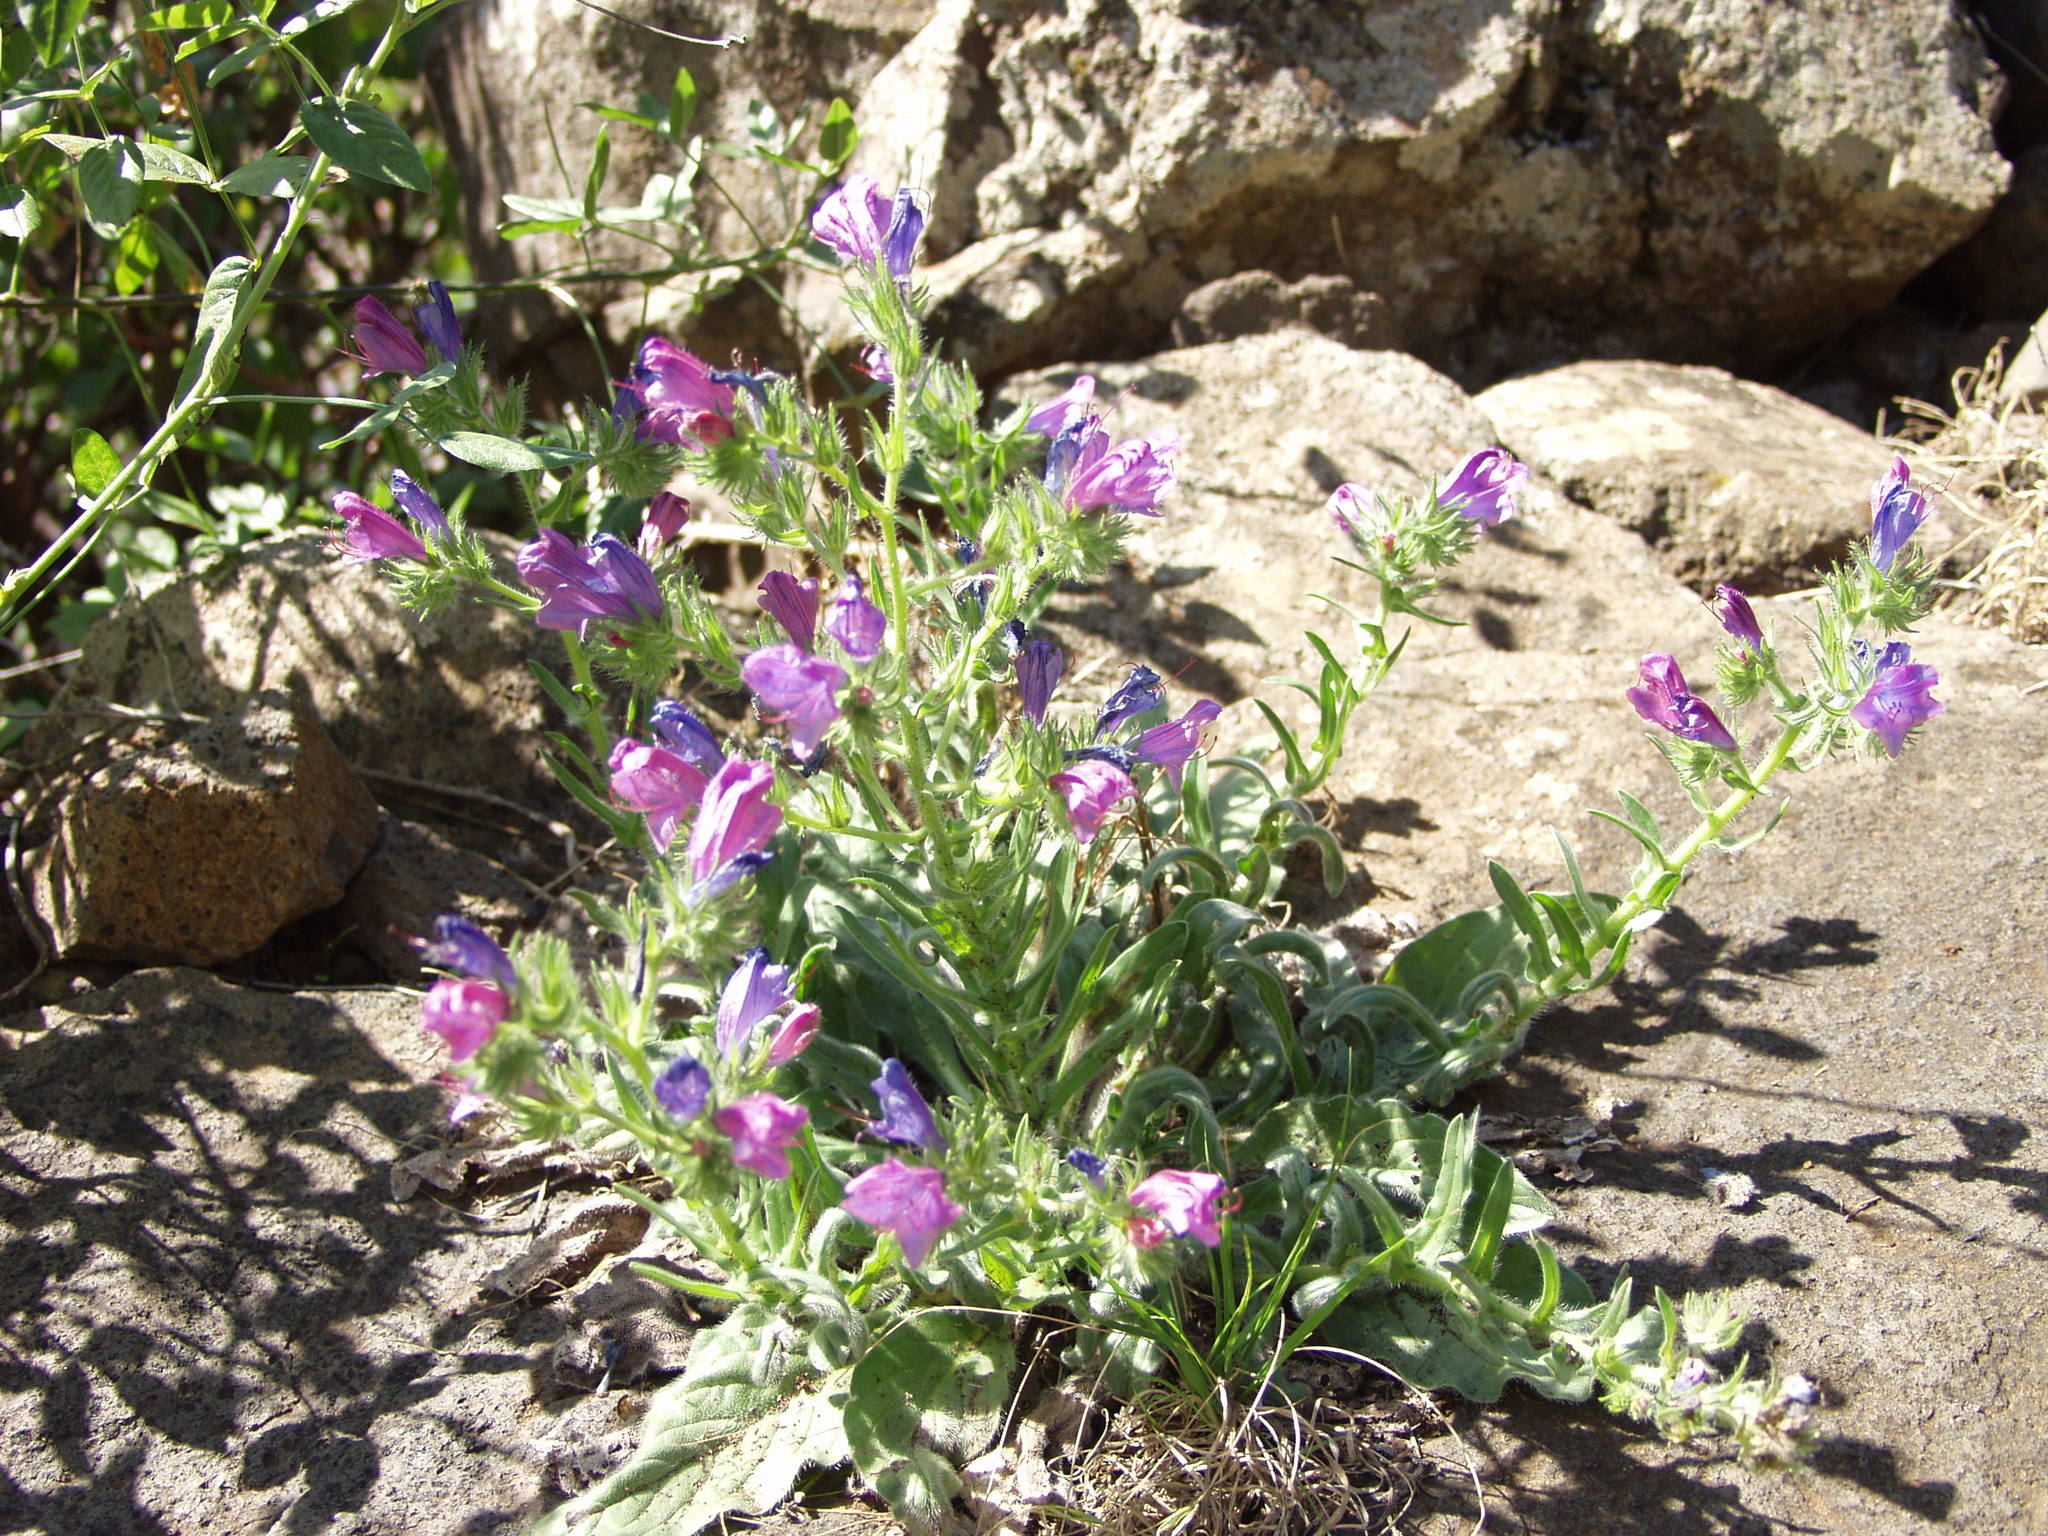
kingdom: Plantae
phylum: Tracheophyta
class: Magnoliopsida
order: Boraginales
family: Boraginaceae
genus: Echium
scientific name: Echium plantagineum
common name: Purple viper's-bugloss
